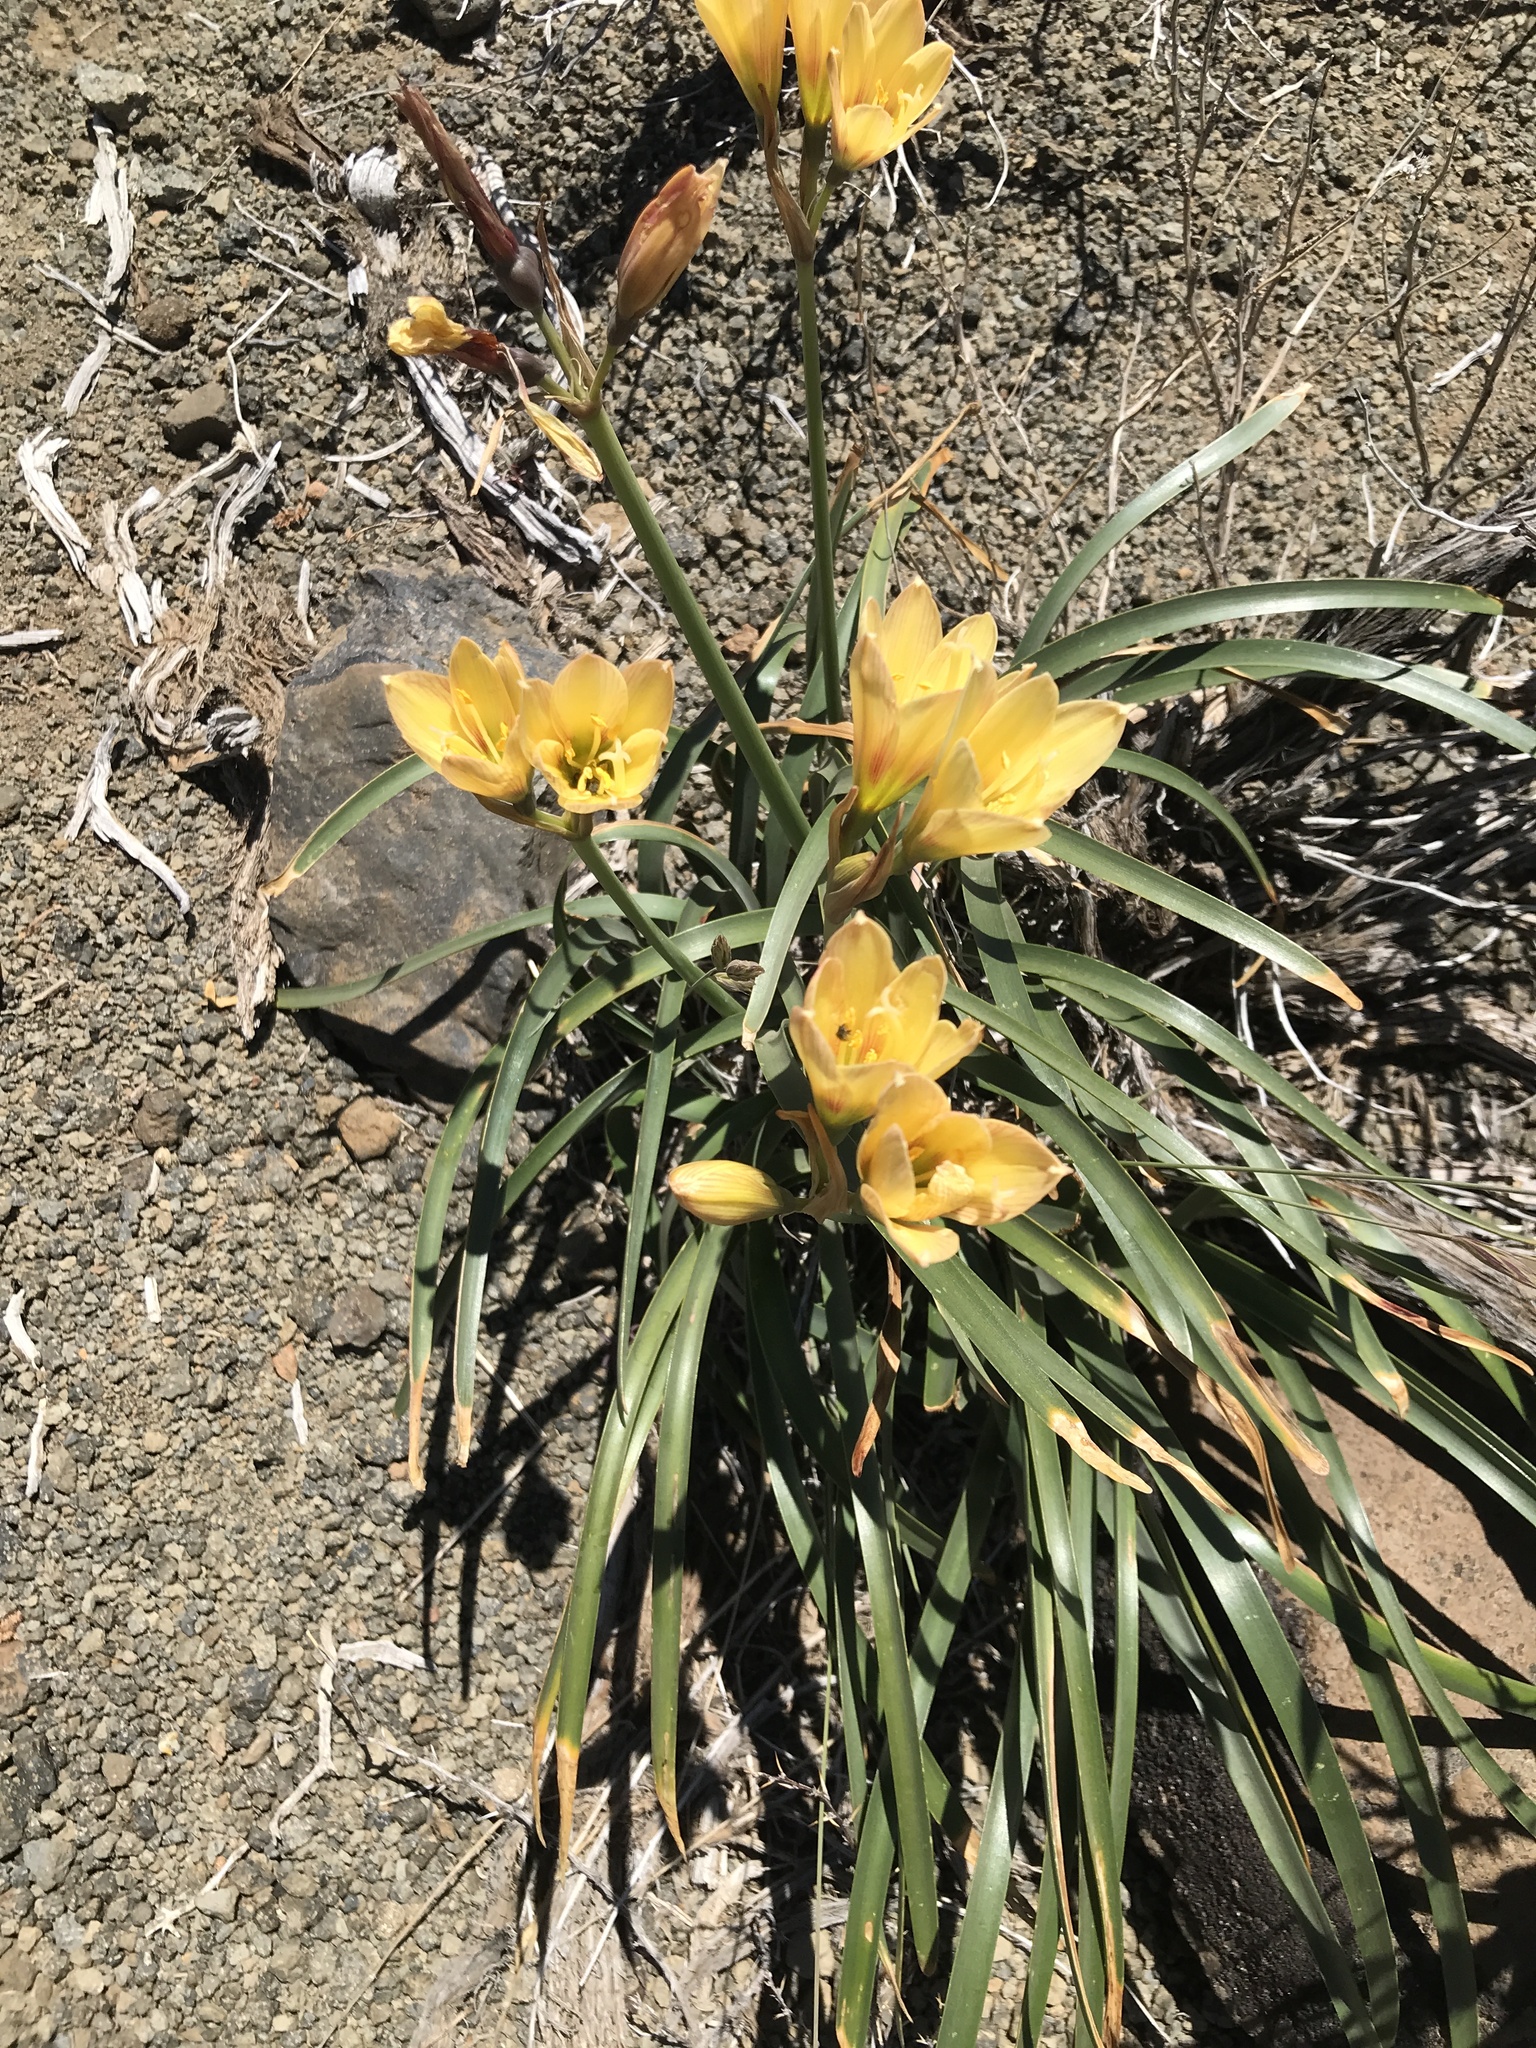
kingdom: Plantae
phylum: Tracheophyta
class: Liliopsida
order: Asparagales
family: Amaryllidaceae
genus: Zephyranthes
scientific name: Zephyranthes gilliesiana
